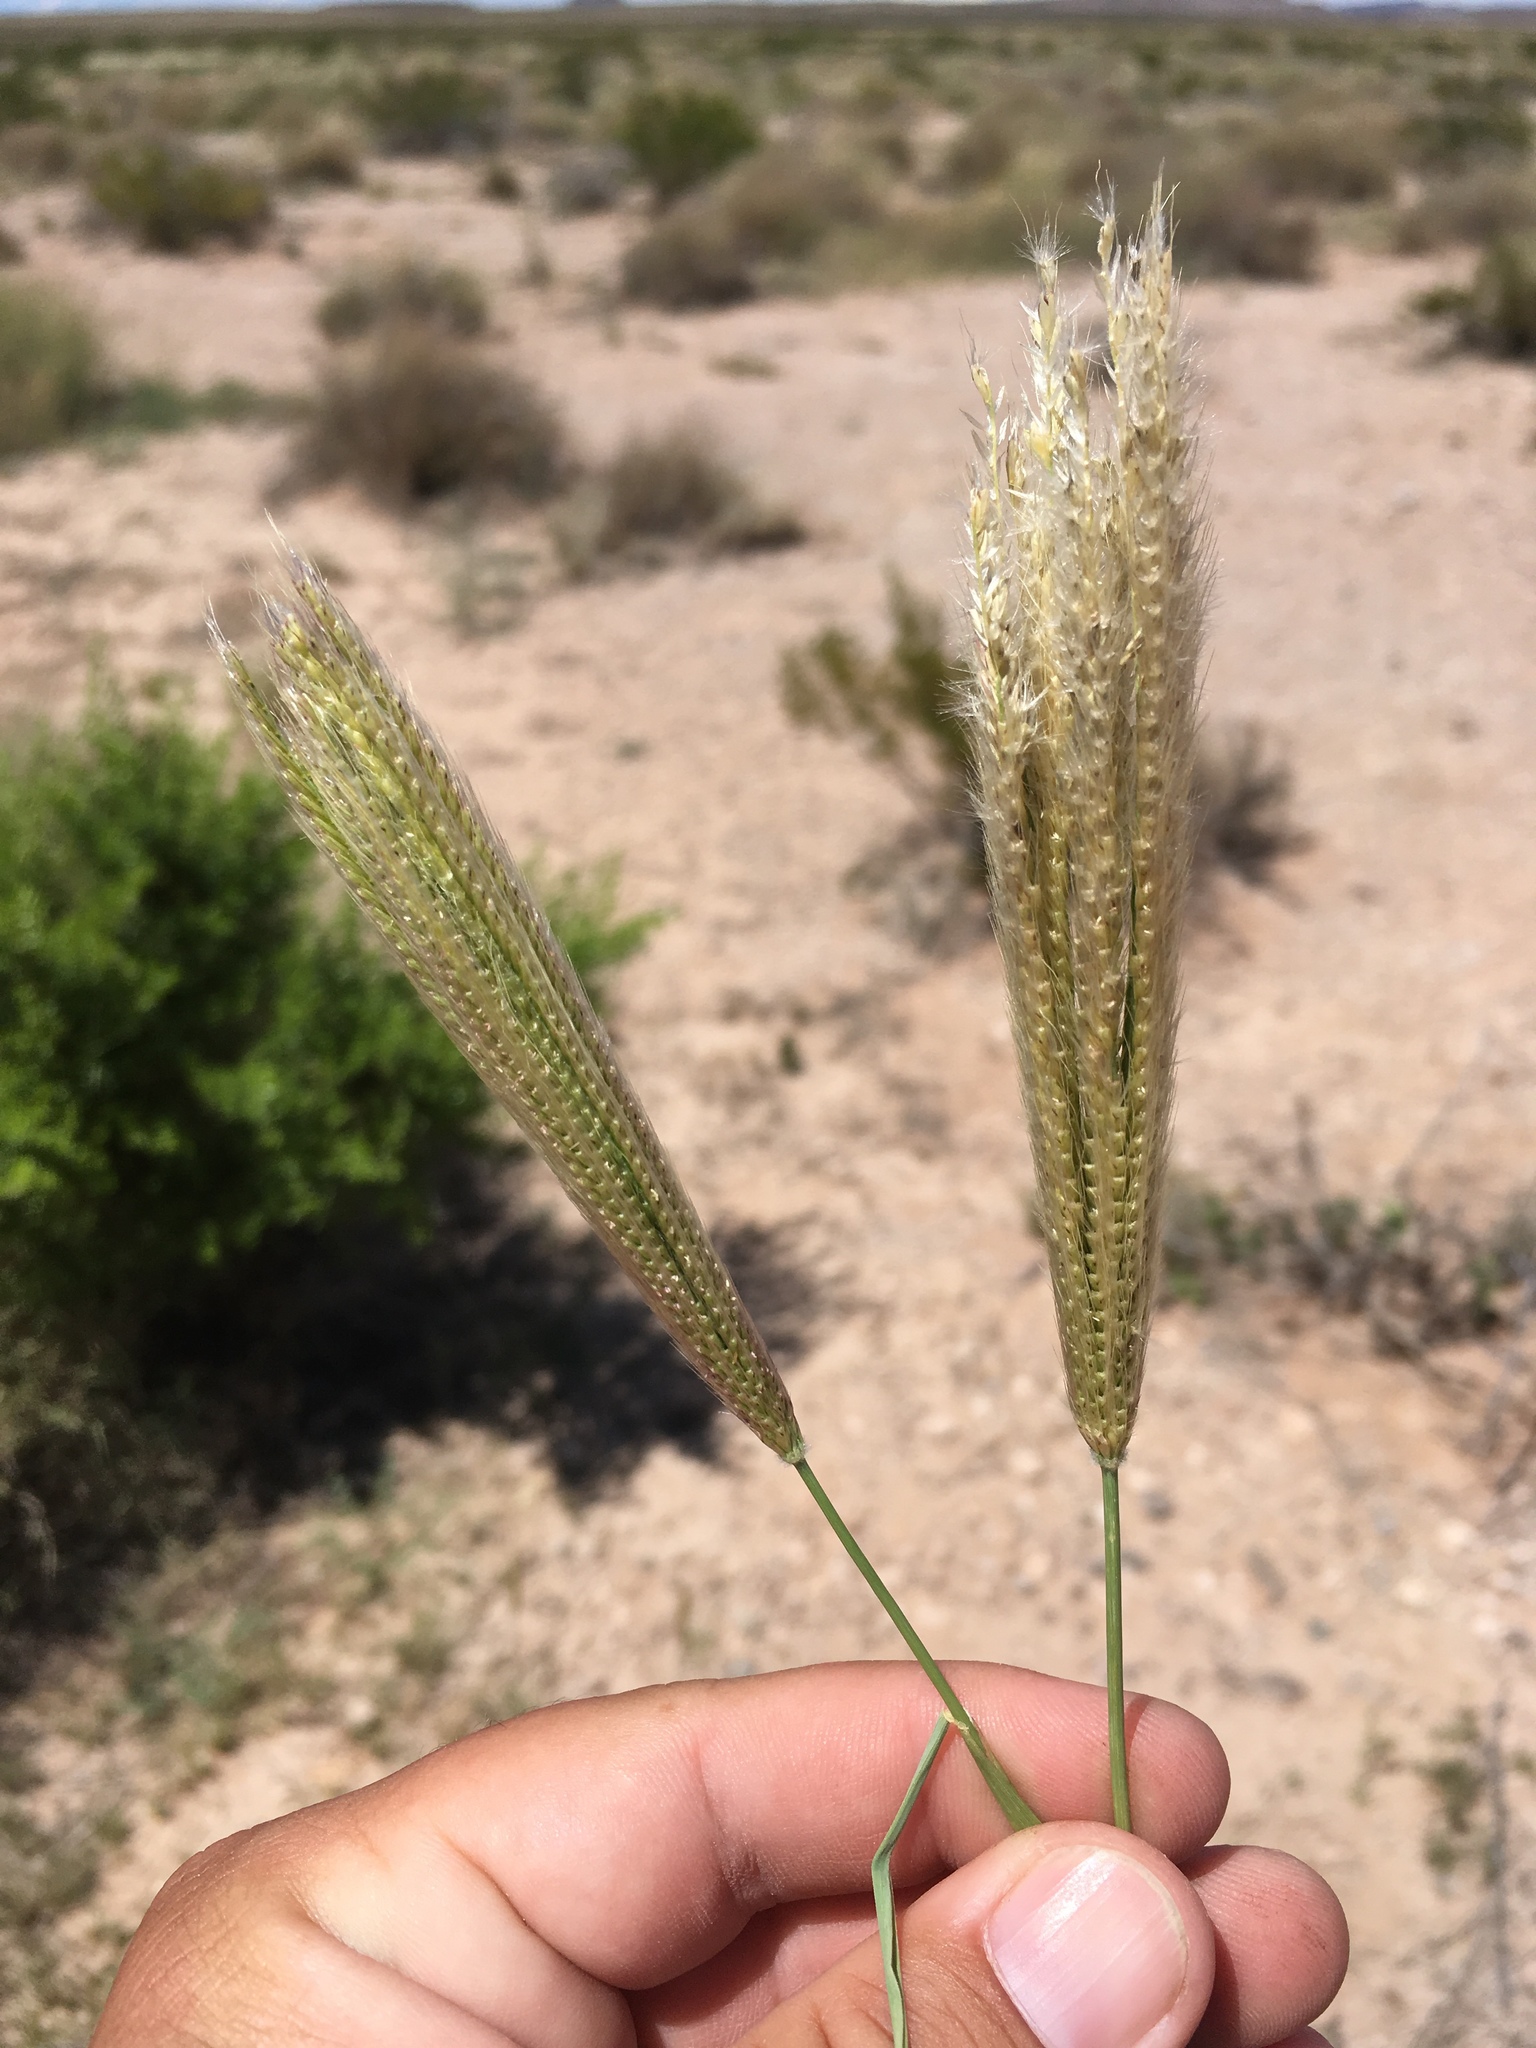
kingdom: Plantae
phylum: Tracheophyta
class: Liliopsida
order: Poales
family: Poaceae
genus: Chloris
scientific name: Chloris virgata
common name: Feathery rhodes-grass
